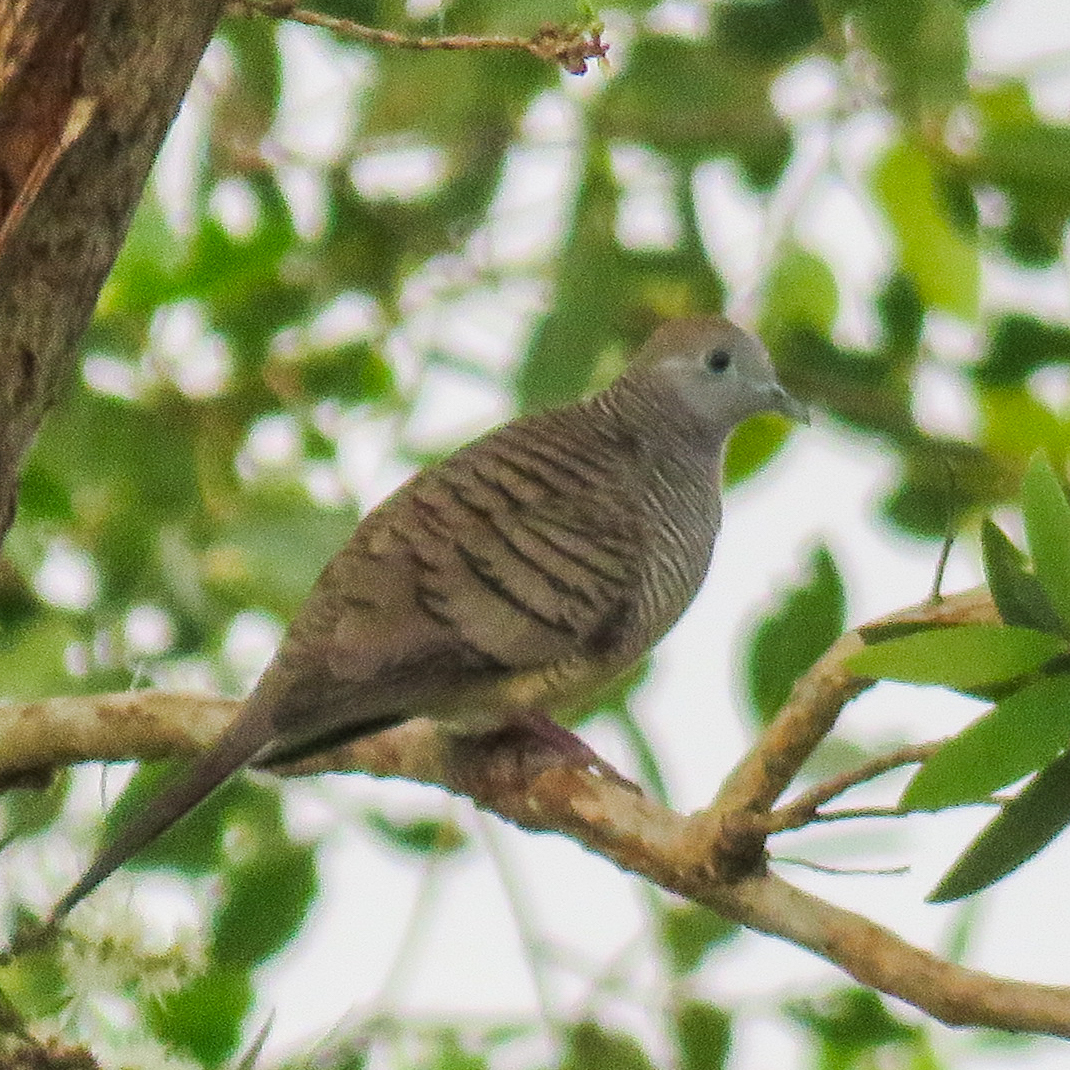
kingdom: Animalia
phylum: Chordata
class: Aves
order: Columbiformes
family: Columbidae
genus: Geopelia
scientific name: Geopelia striata
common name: Zebra dove
